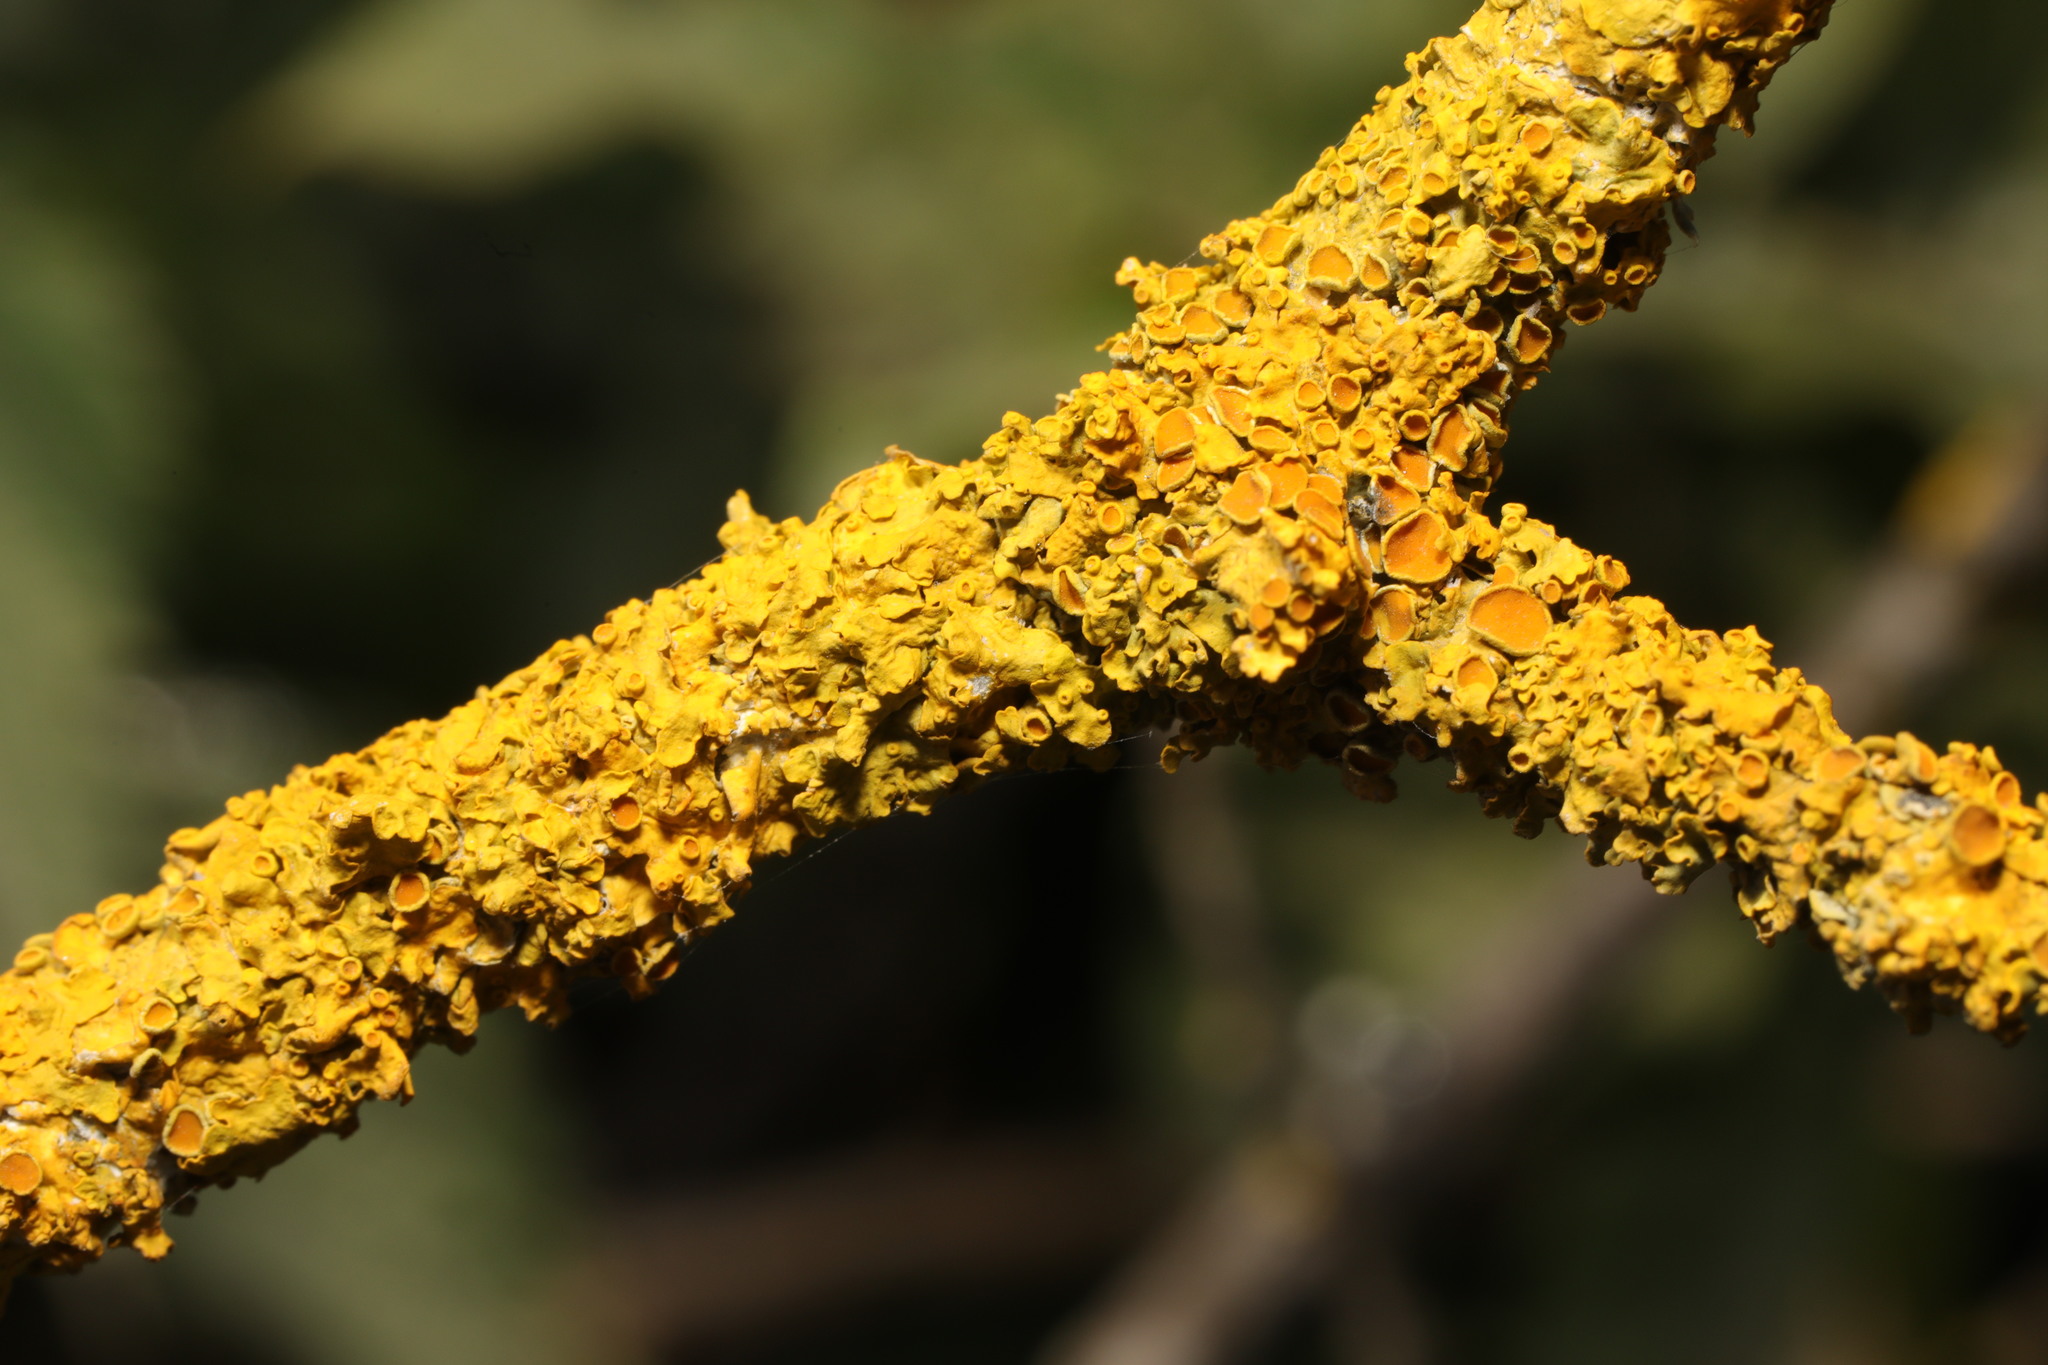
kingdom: Fungi
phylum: Ascomycota
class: Lecanoromycetes
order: Teloschistales
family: Teloschistaceae
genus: Xanthoria
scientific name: Xanthoria parietina
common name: Common orange lichen
